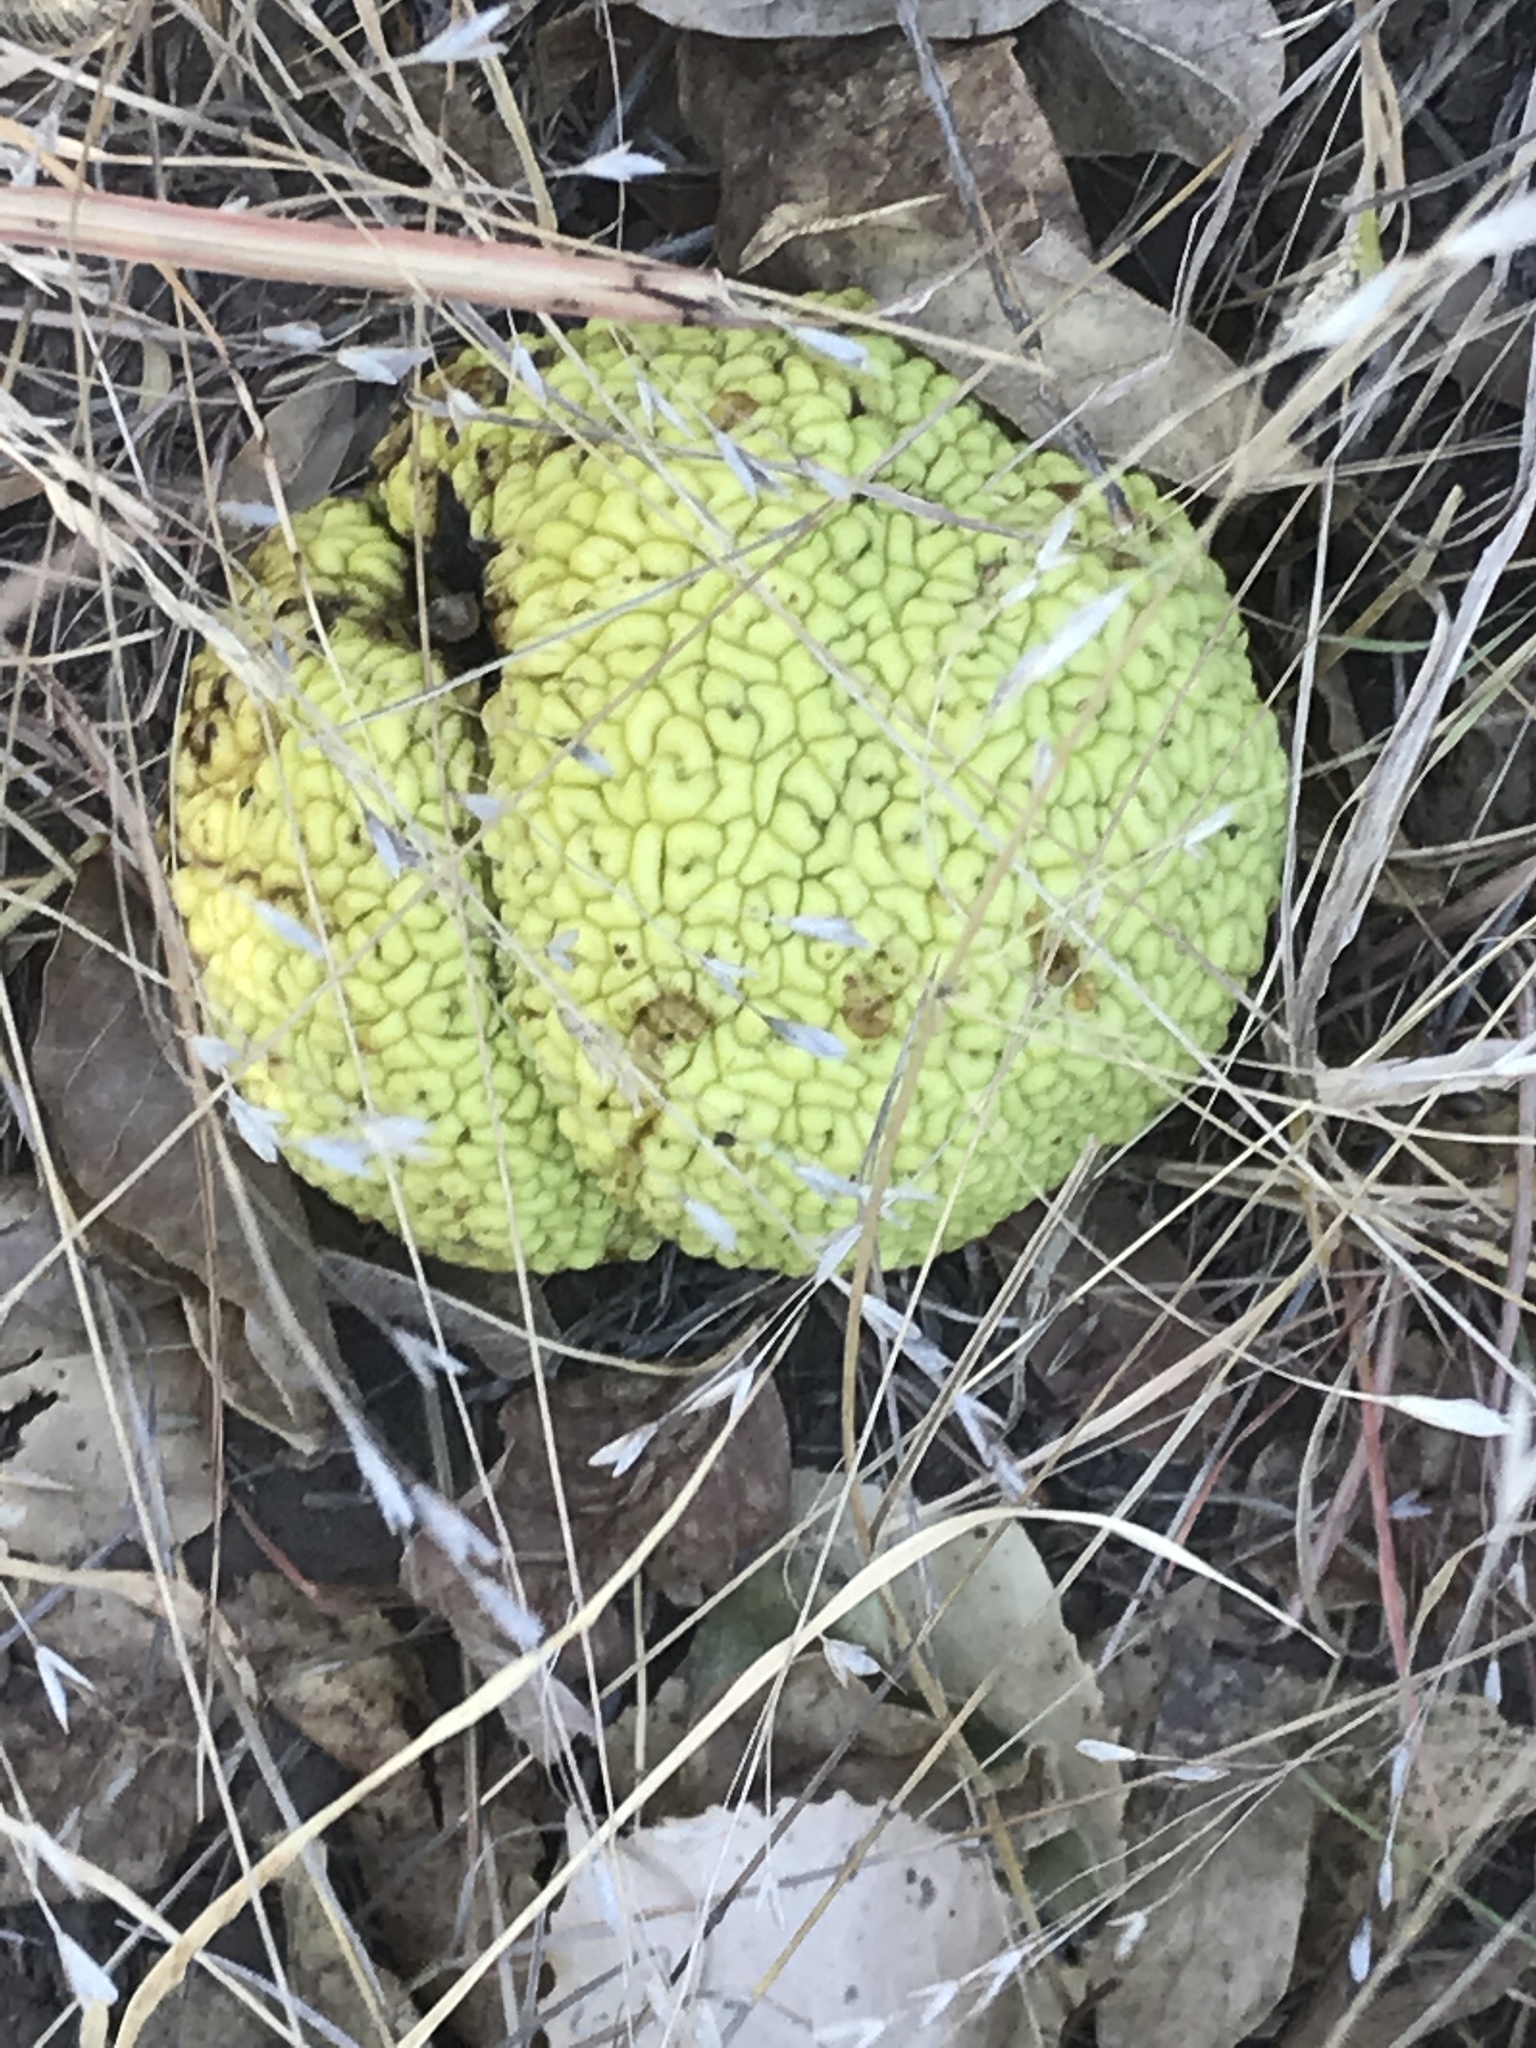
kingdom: Plantae
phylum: Tracheophyta
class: Magnoliopsida
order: Rosales
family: Moraceae
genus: Maclura
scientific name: Maclura pomifera
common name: Osage-orange
